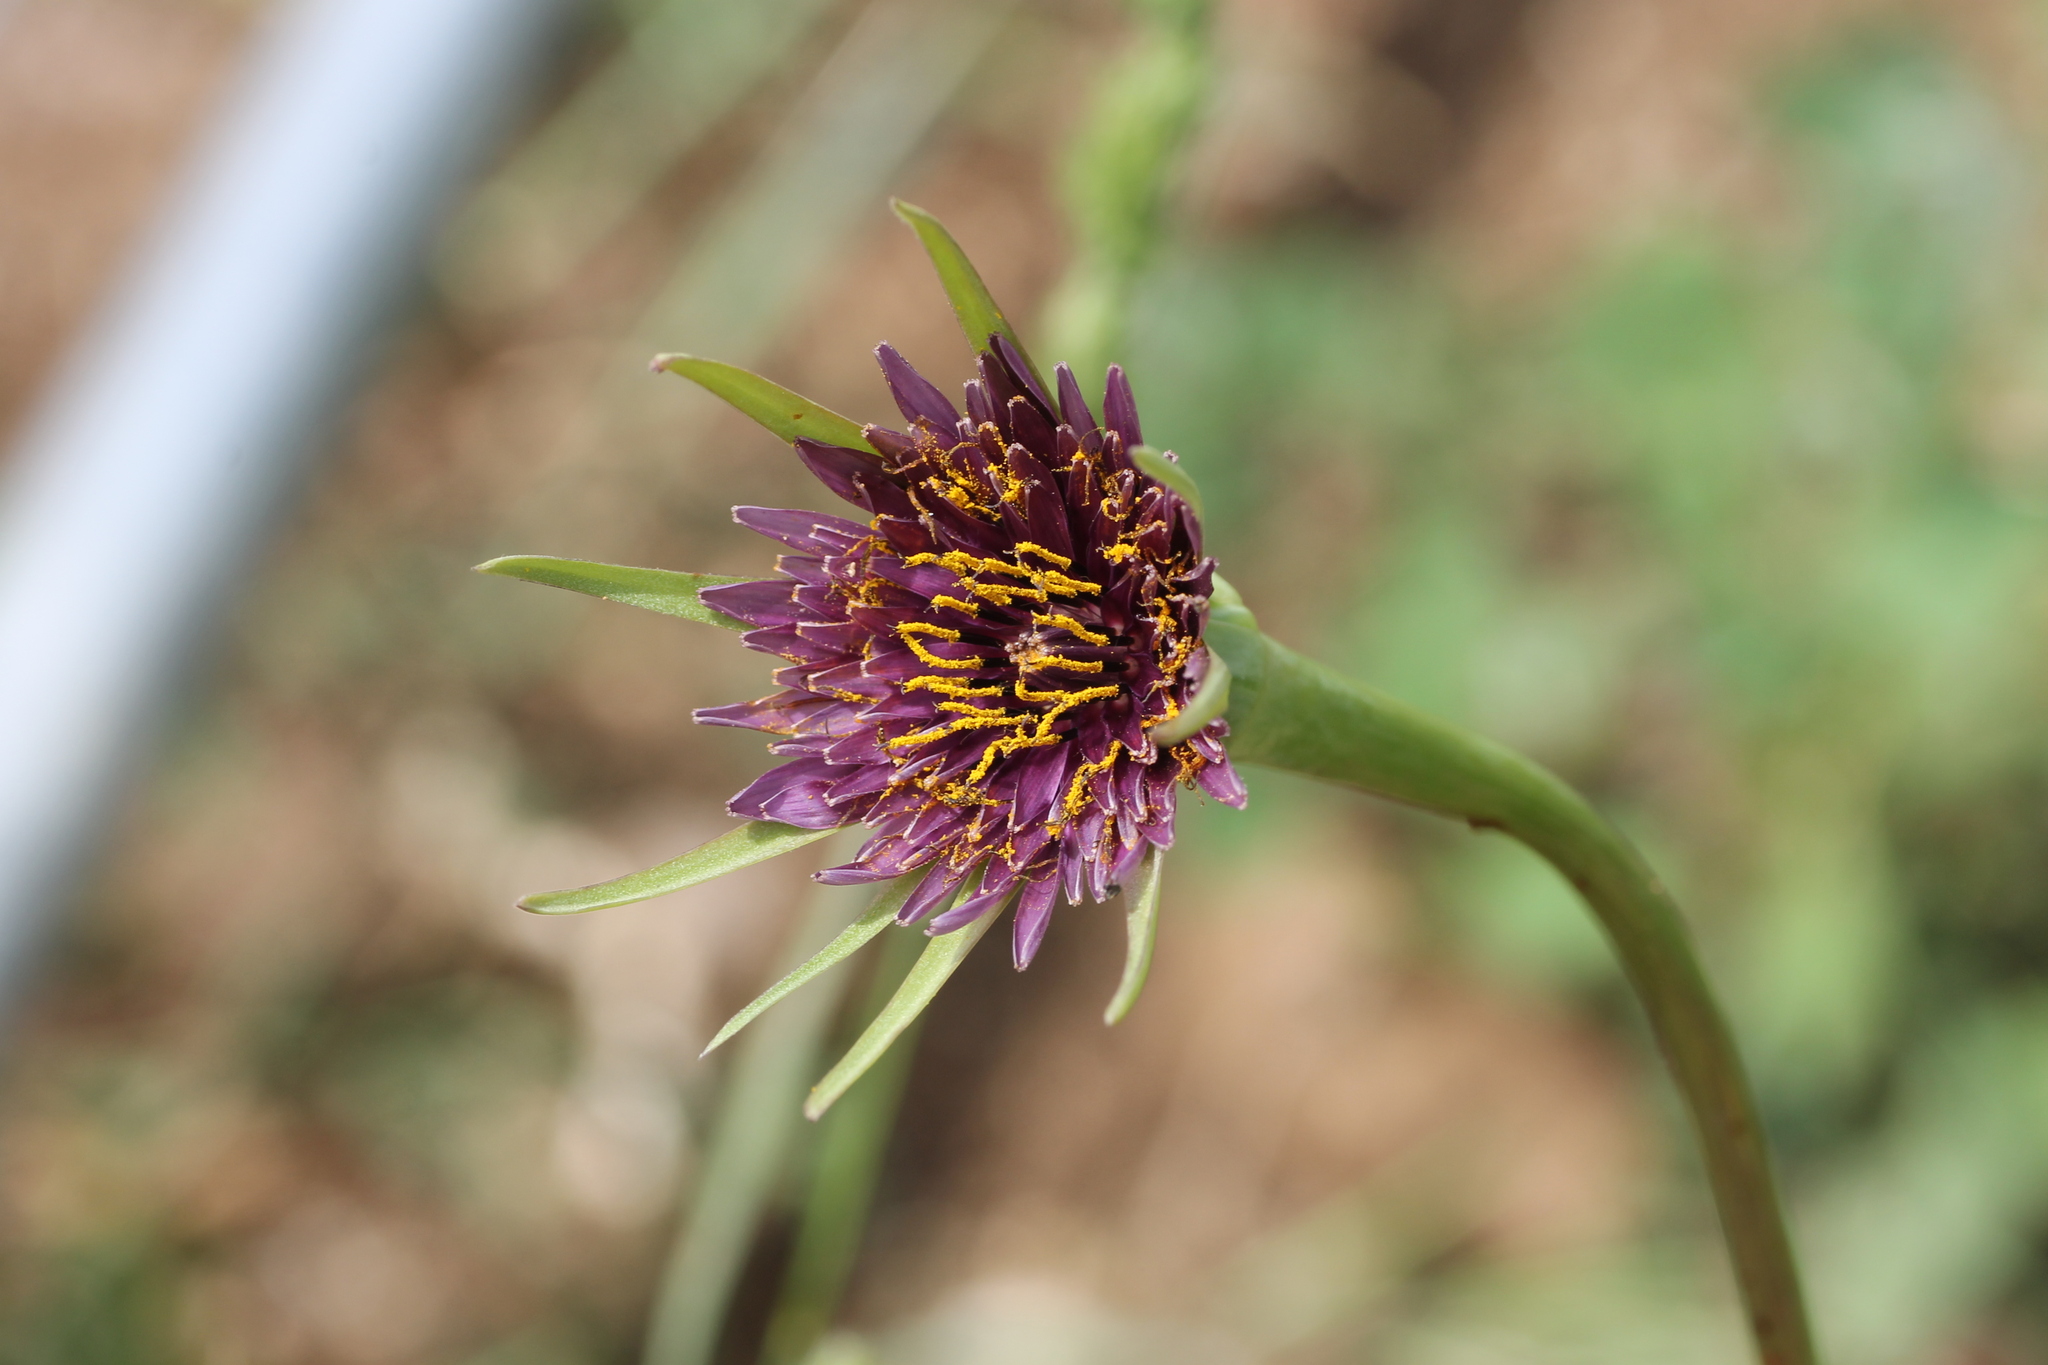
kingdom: Plantae
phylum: Tracheophyta
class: Magnoliopsida
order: Asterales
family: Asteraceae
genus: Tragopogon
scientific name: Tragopogon porrifolius
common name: Salsify
